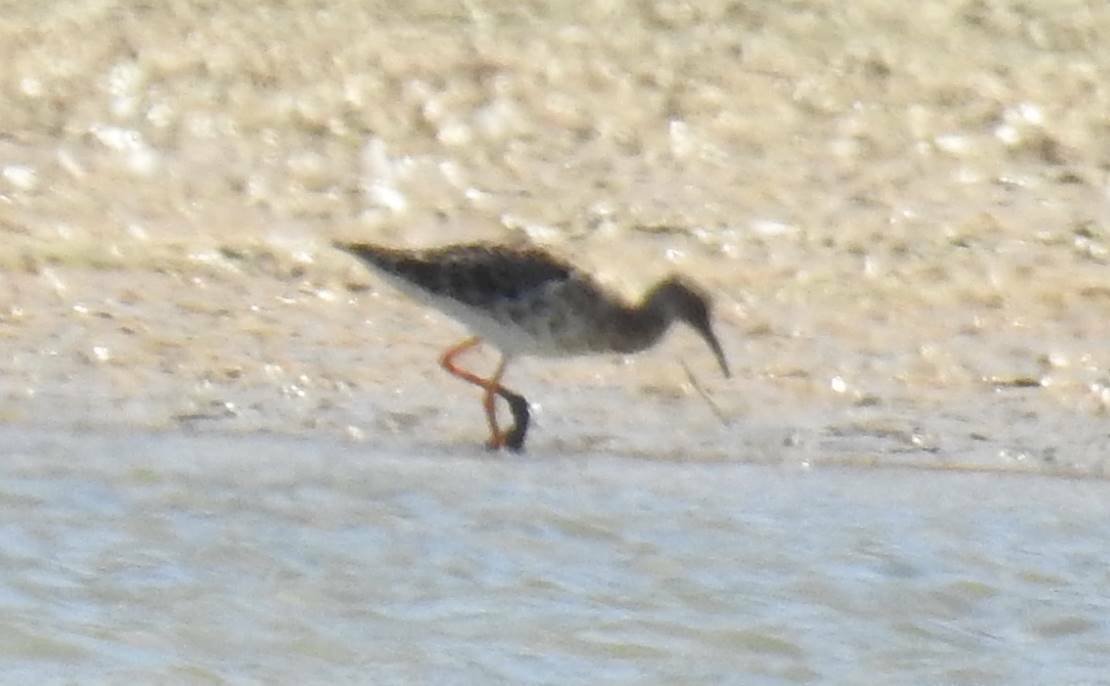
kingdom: Animalia
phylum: Chordata
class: Aves
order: Charadriiformes
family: Scolopacidae
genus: Calidris
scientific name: Calidris pugnax
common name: Ruff
